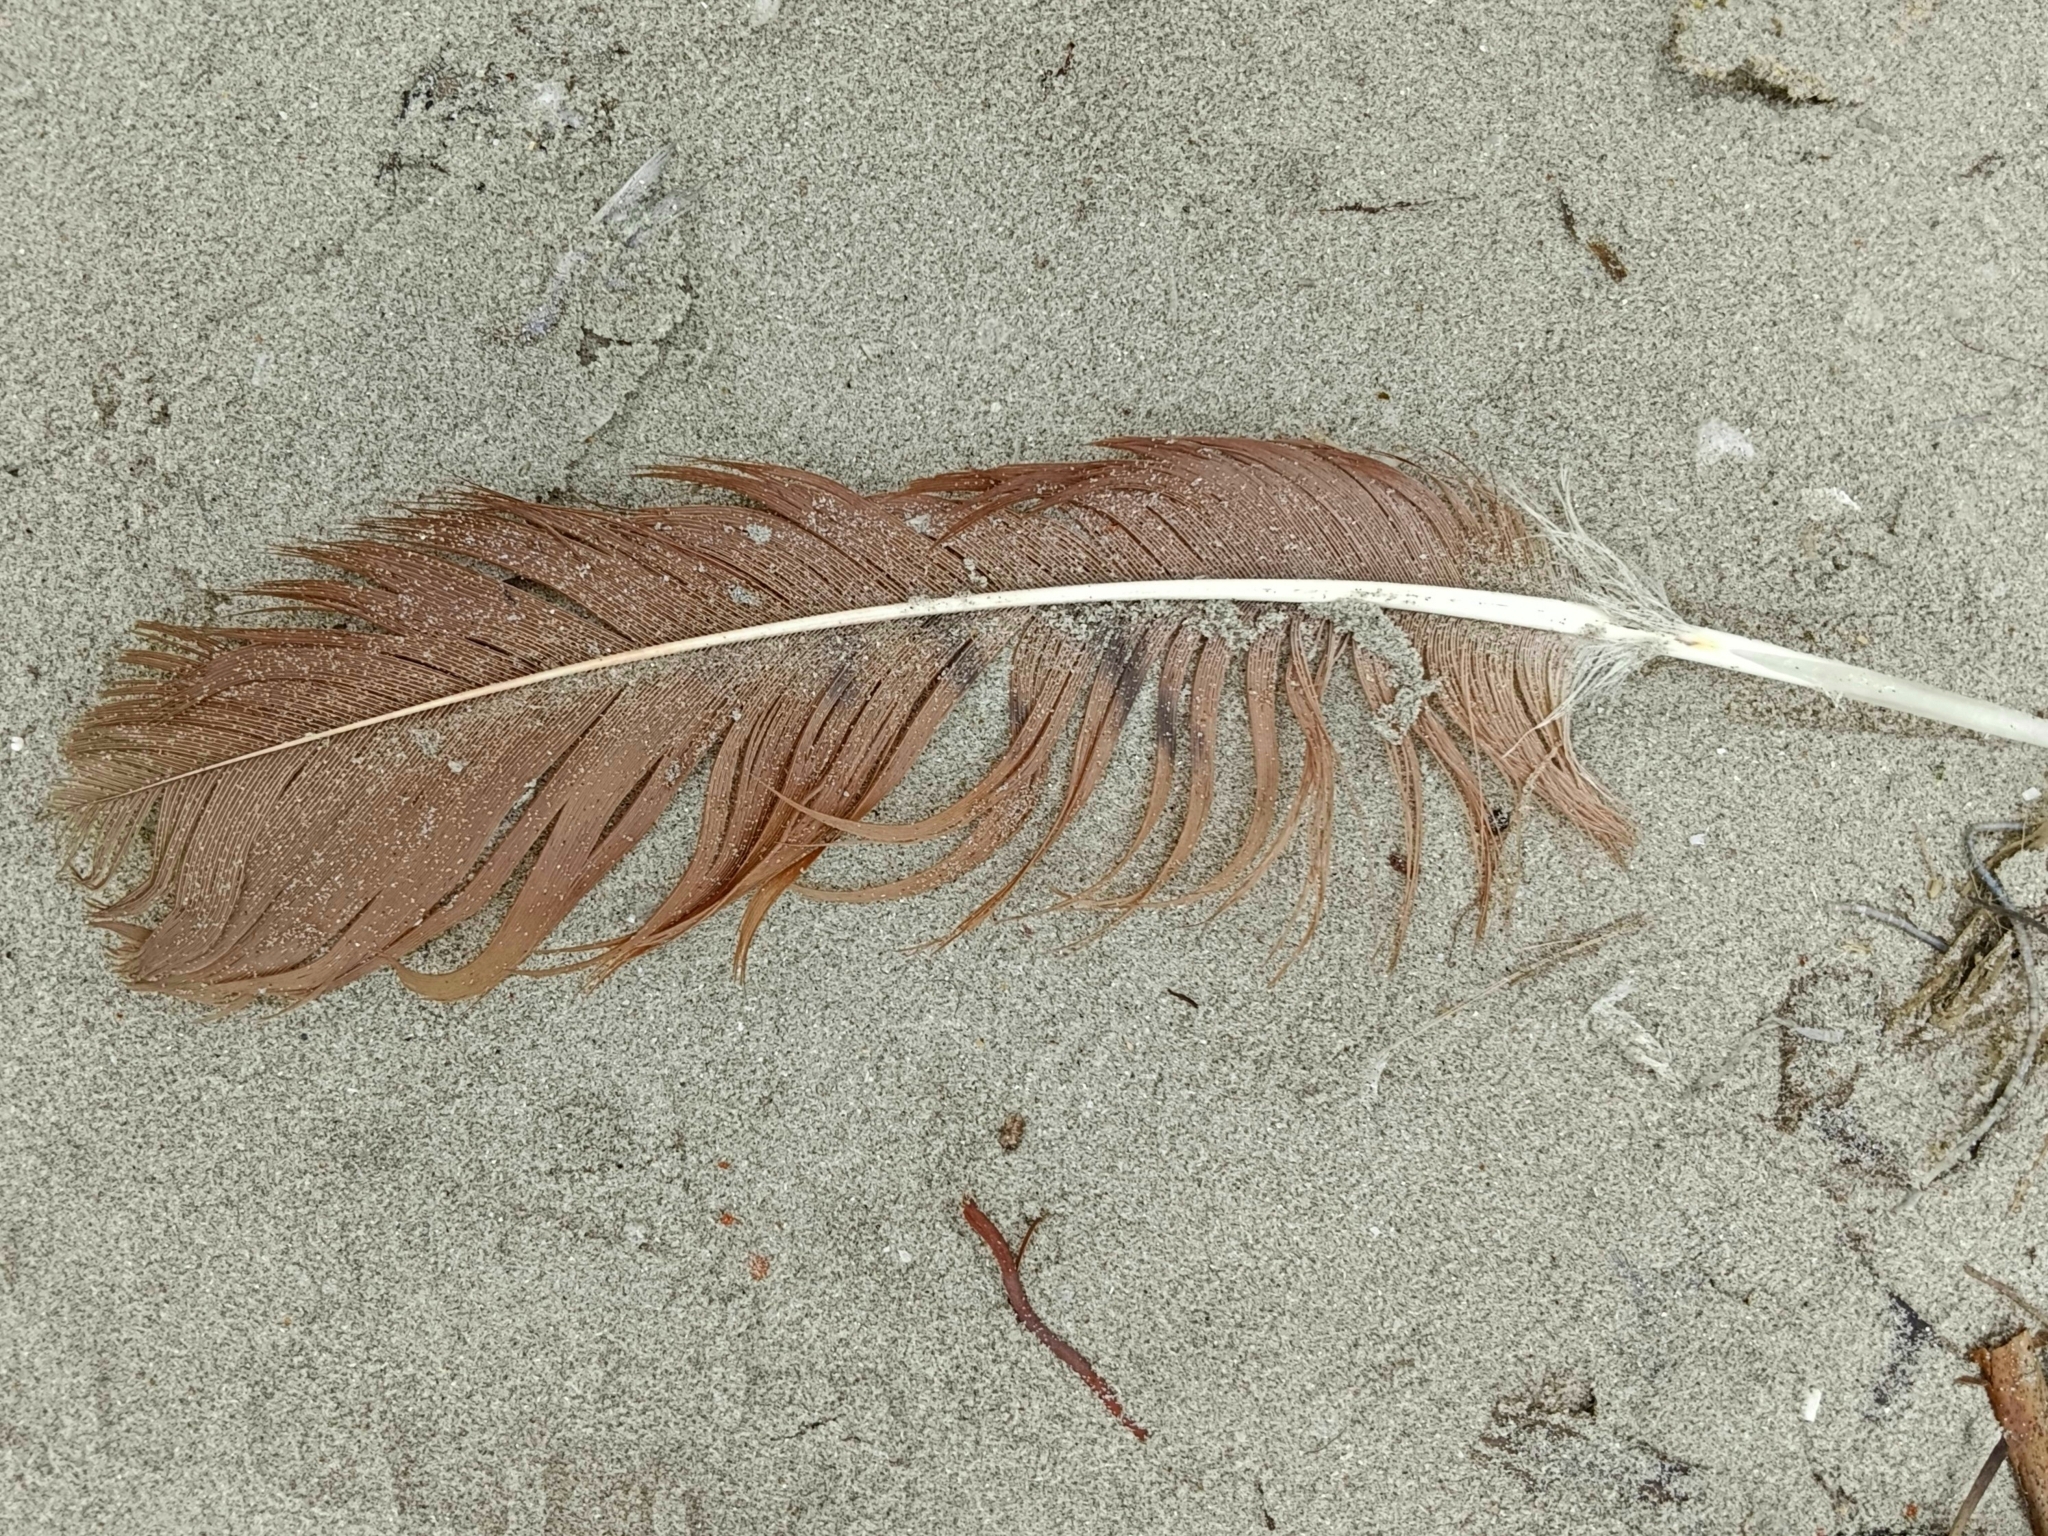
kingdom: Animalia
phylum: Chordata
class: Aves
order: Accipitriformes
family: Accipitridae
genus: Haliastur
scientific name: Haliastur indus
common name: Brahminy kite
